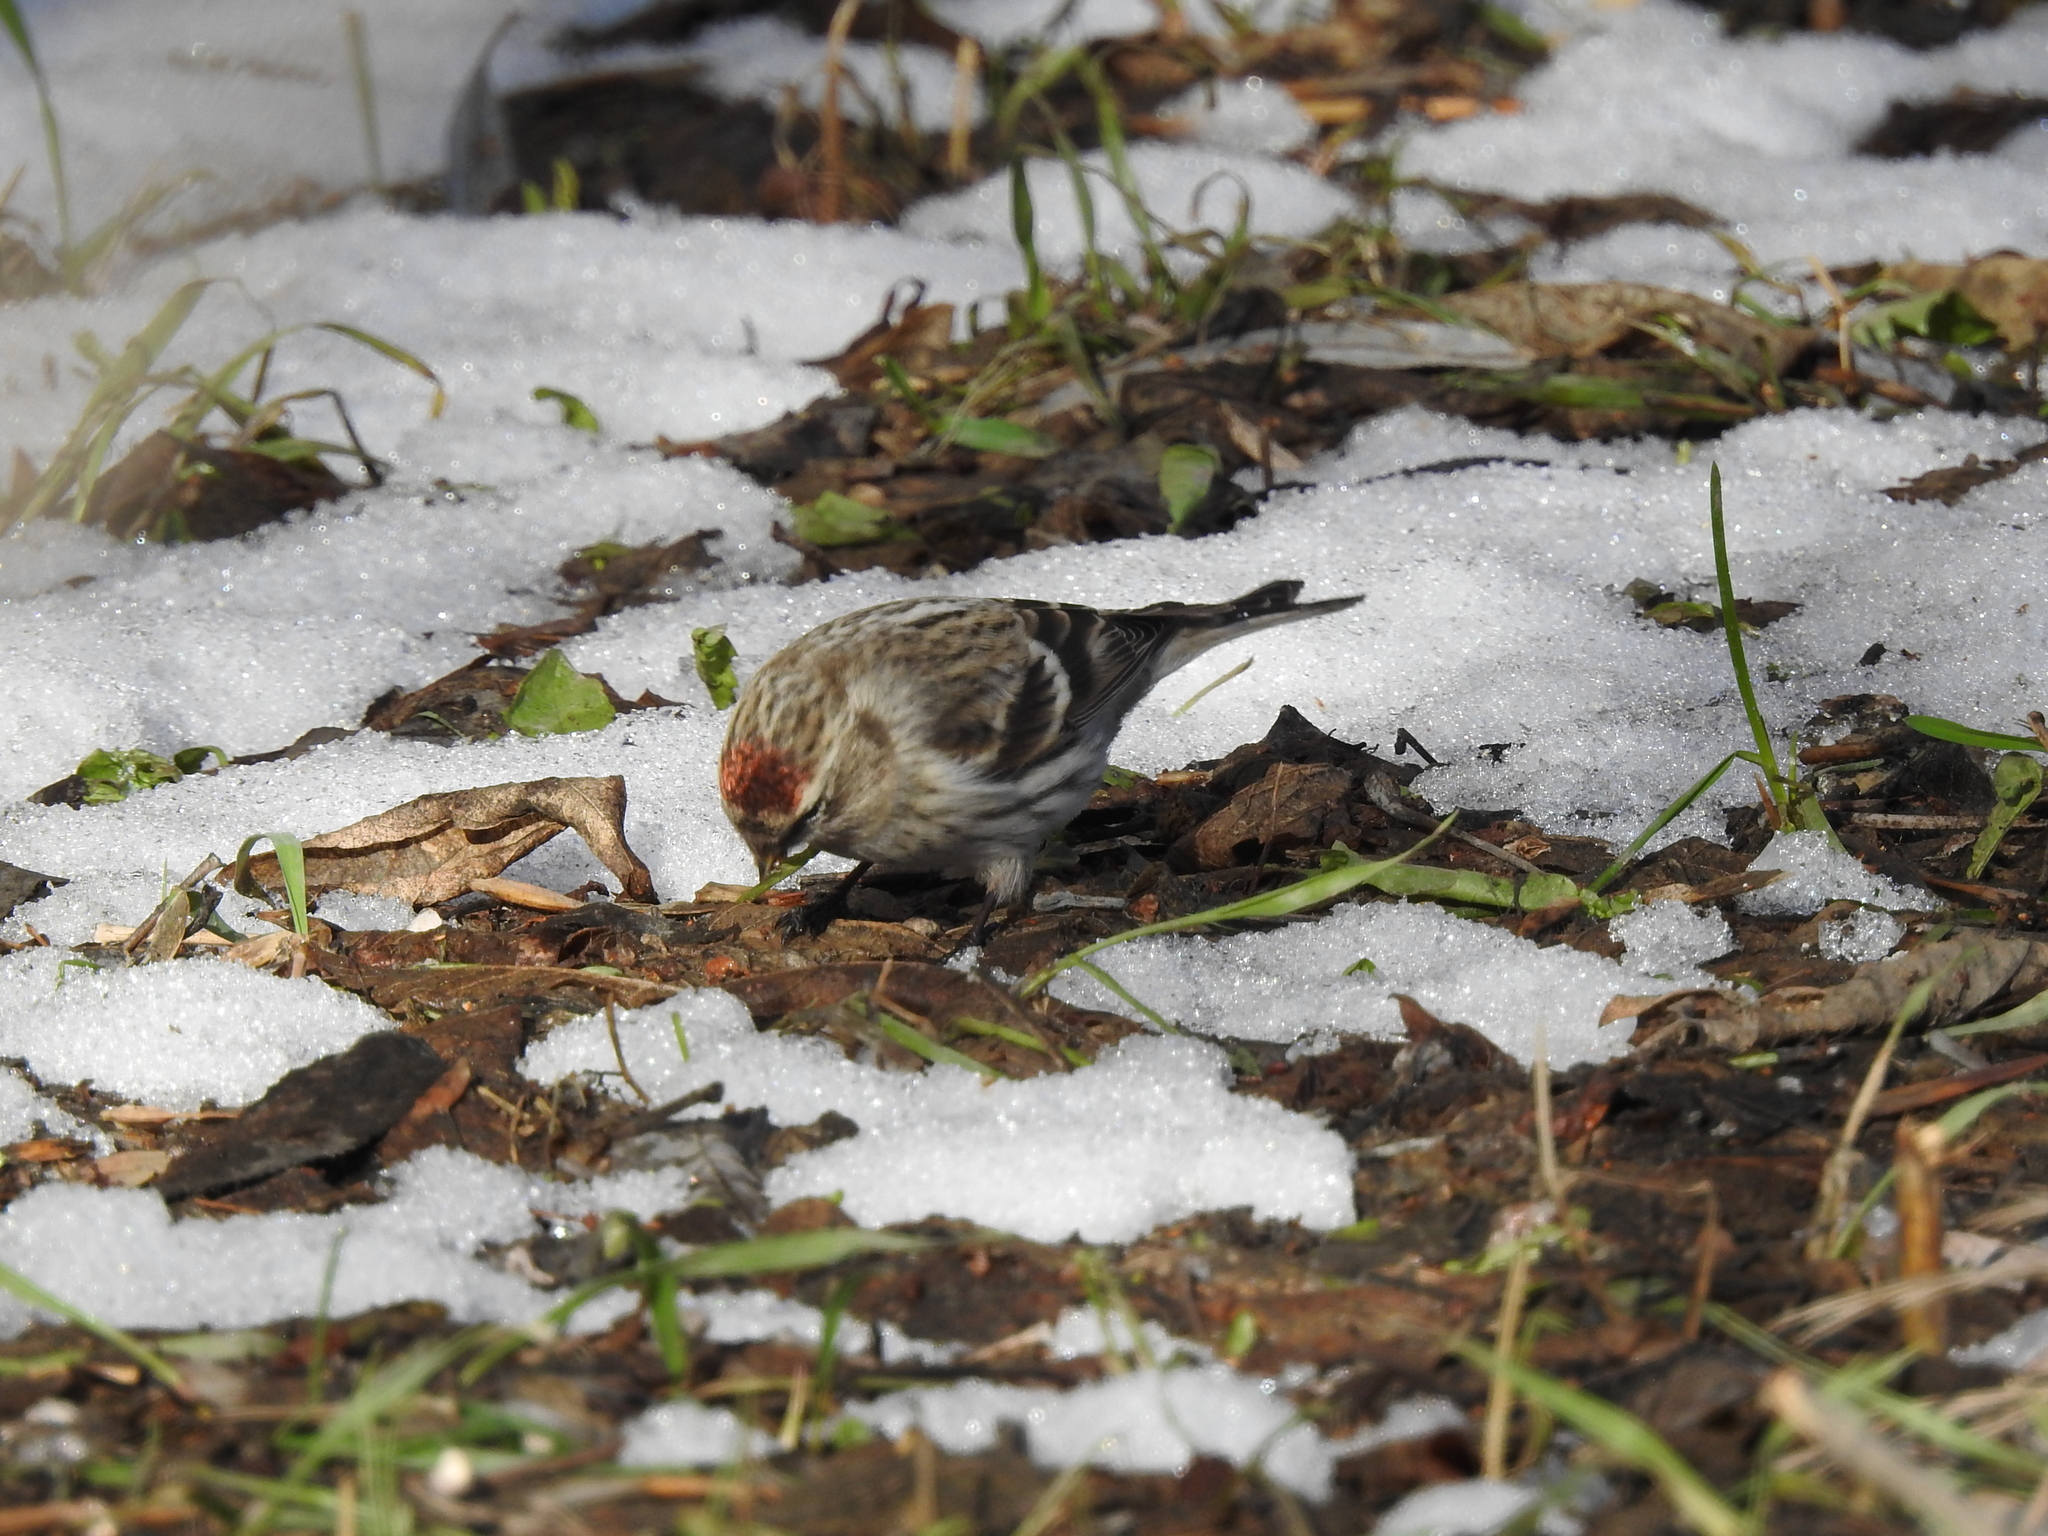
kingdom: Animalia
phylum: Chordata
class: Aves
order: Passeriformes
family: Fringillidae
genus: Acanthis
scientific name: Acanthis flammea
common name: Common redpoll
